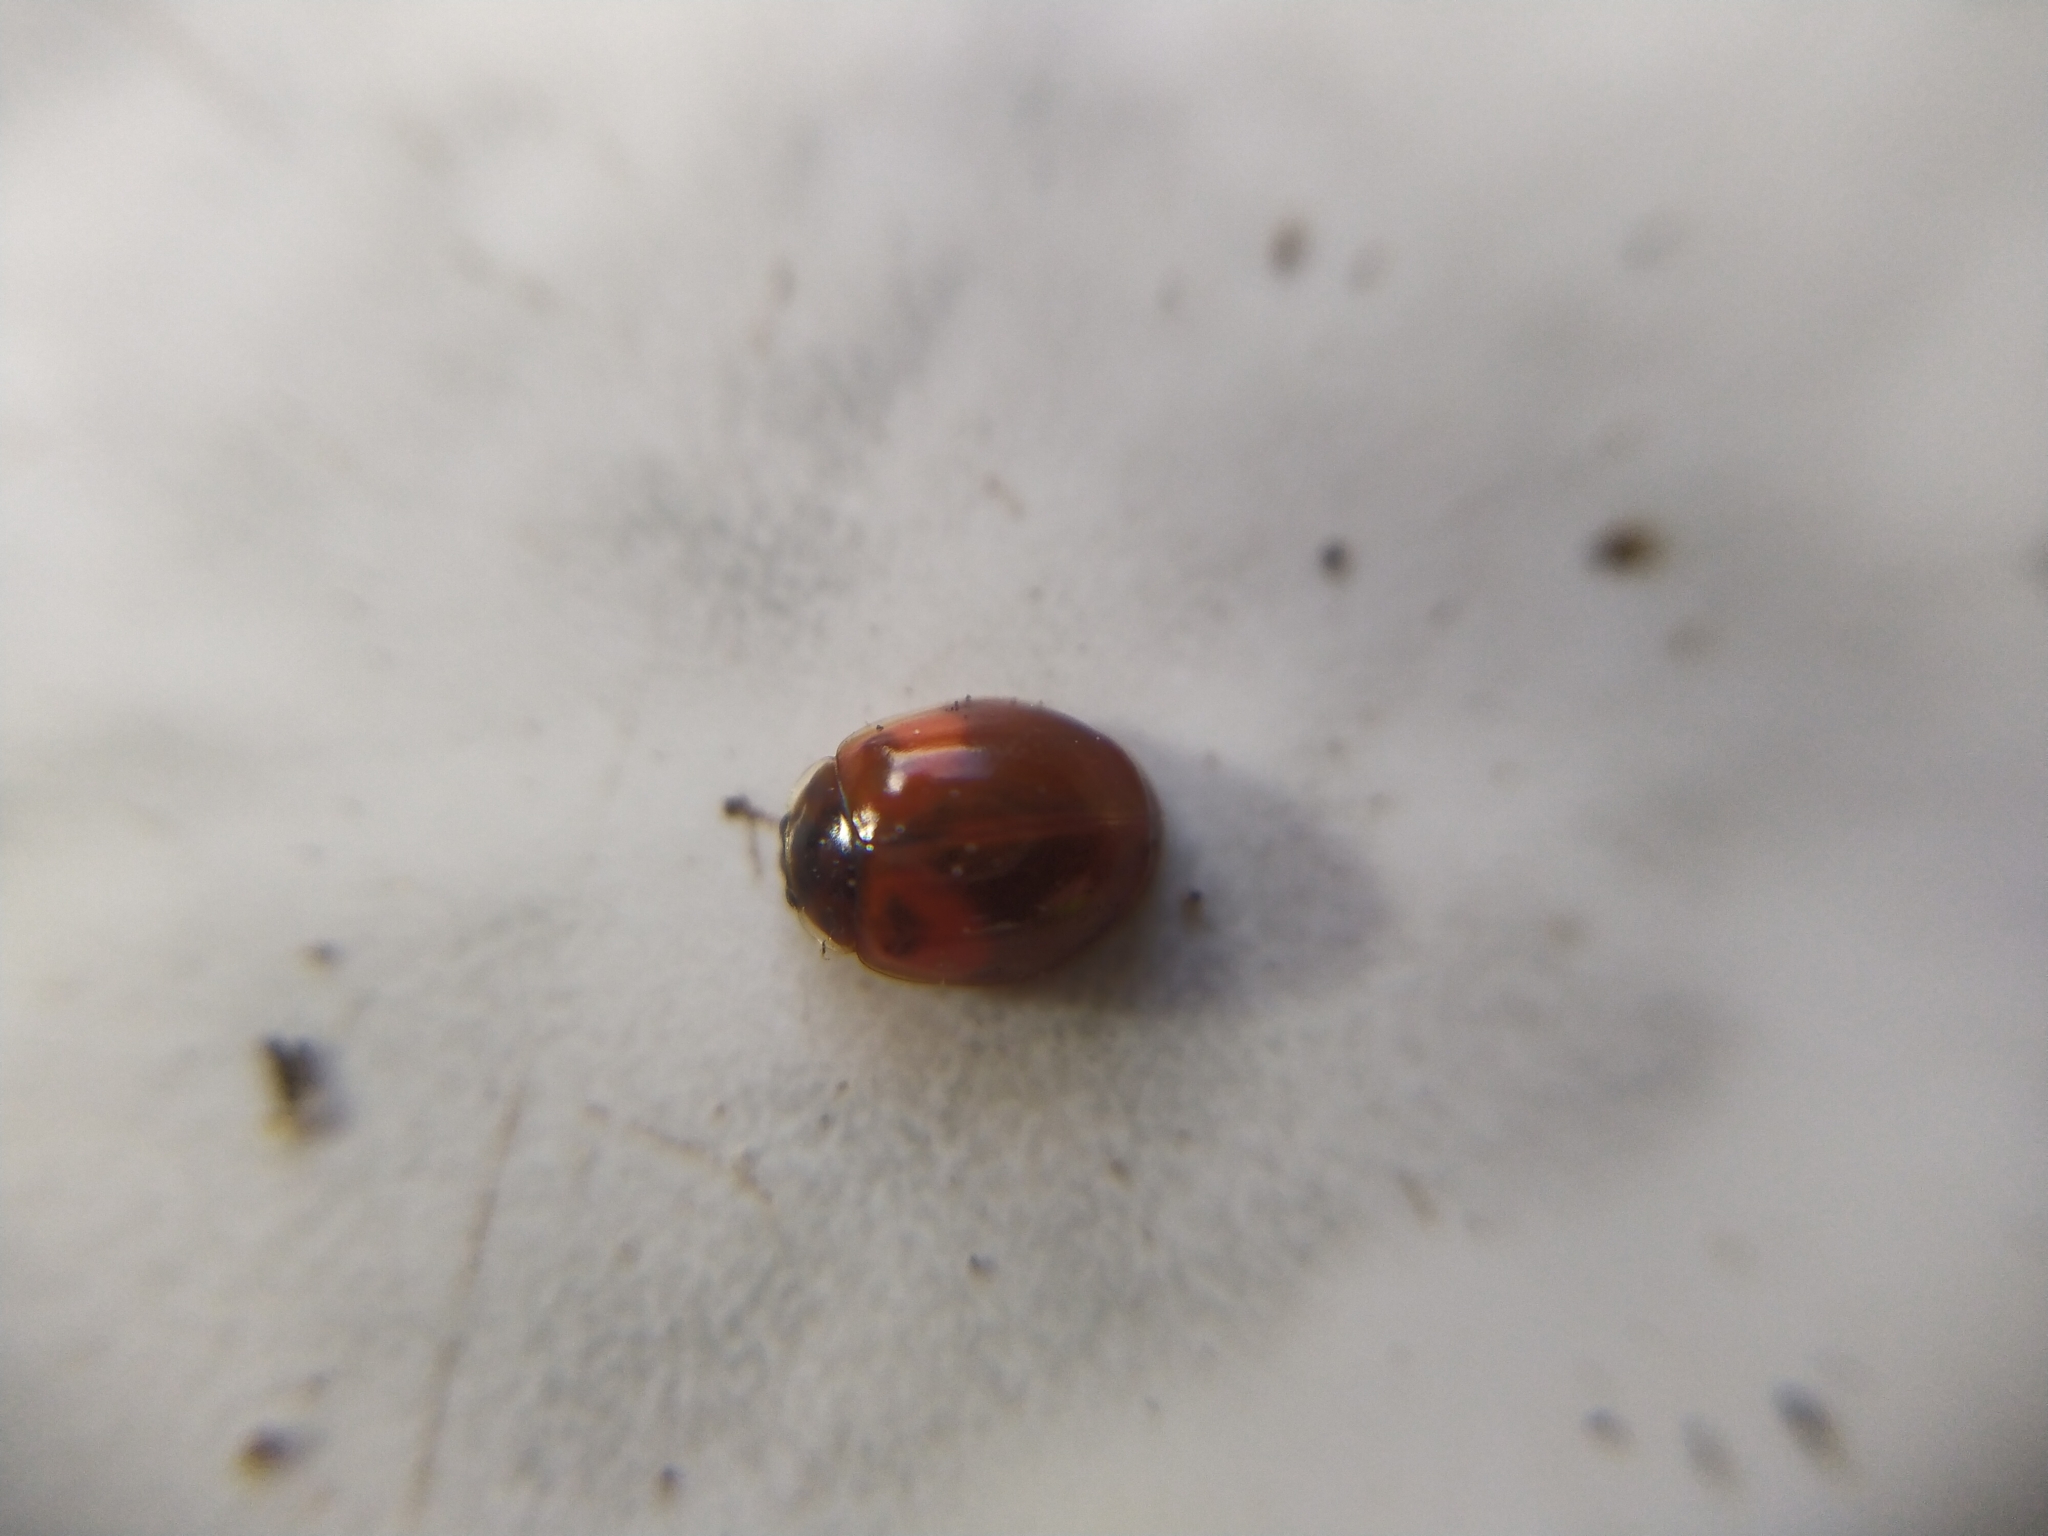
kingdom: Animalia
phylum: Arthropoda
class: Insecta
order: Coleoptera
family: Coccinellidae
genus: Adalia
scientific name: Adalia decempunctata
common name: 10-spot ladybird
